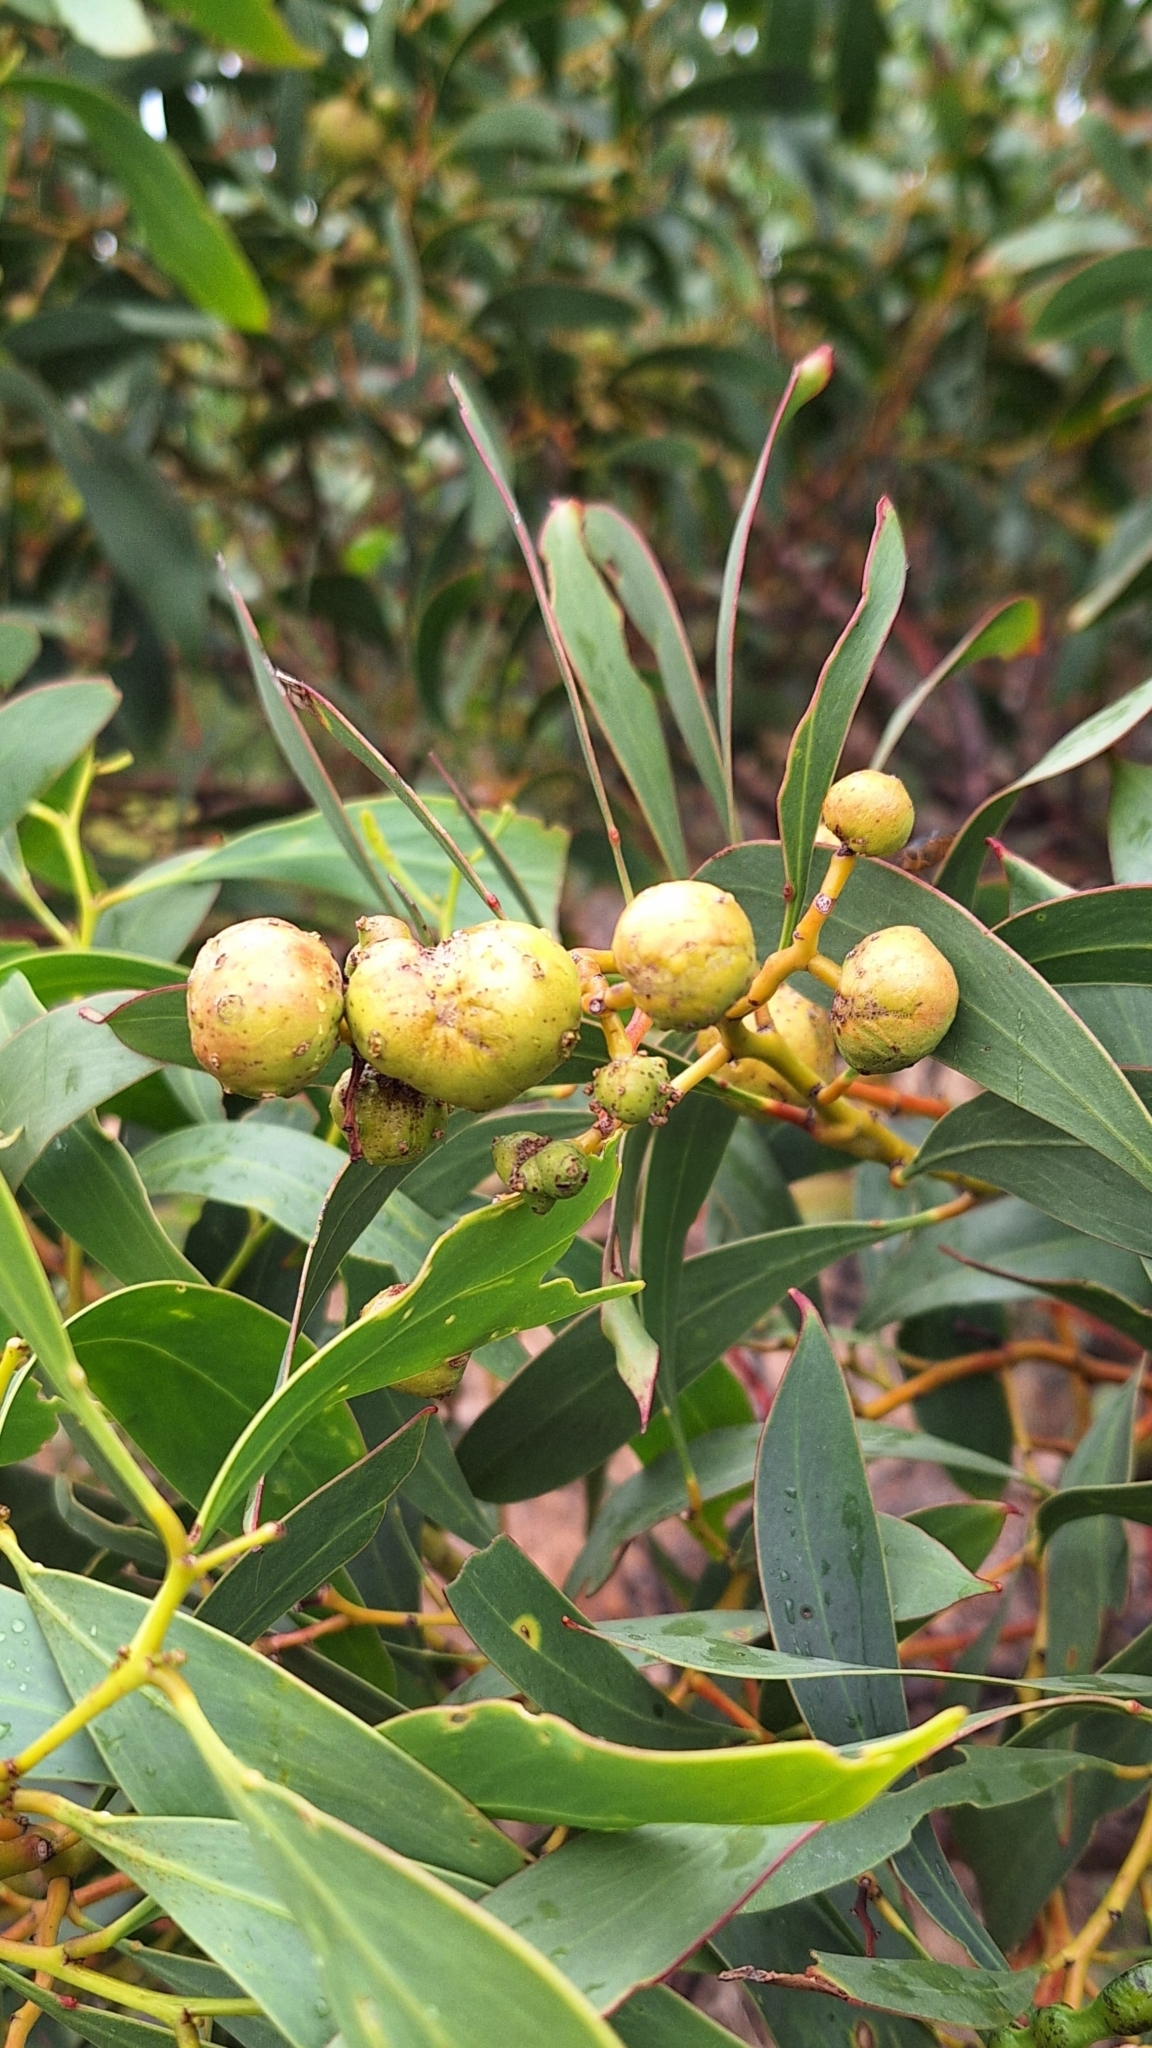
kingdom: Animalia
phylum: Arthropoda
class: Insecta
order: Hymenoptera
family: Pteromalidae
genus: Trichilogaster
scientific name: Trichilogaster signiventris
